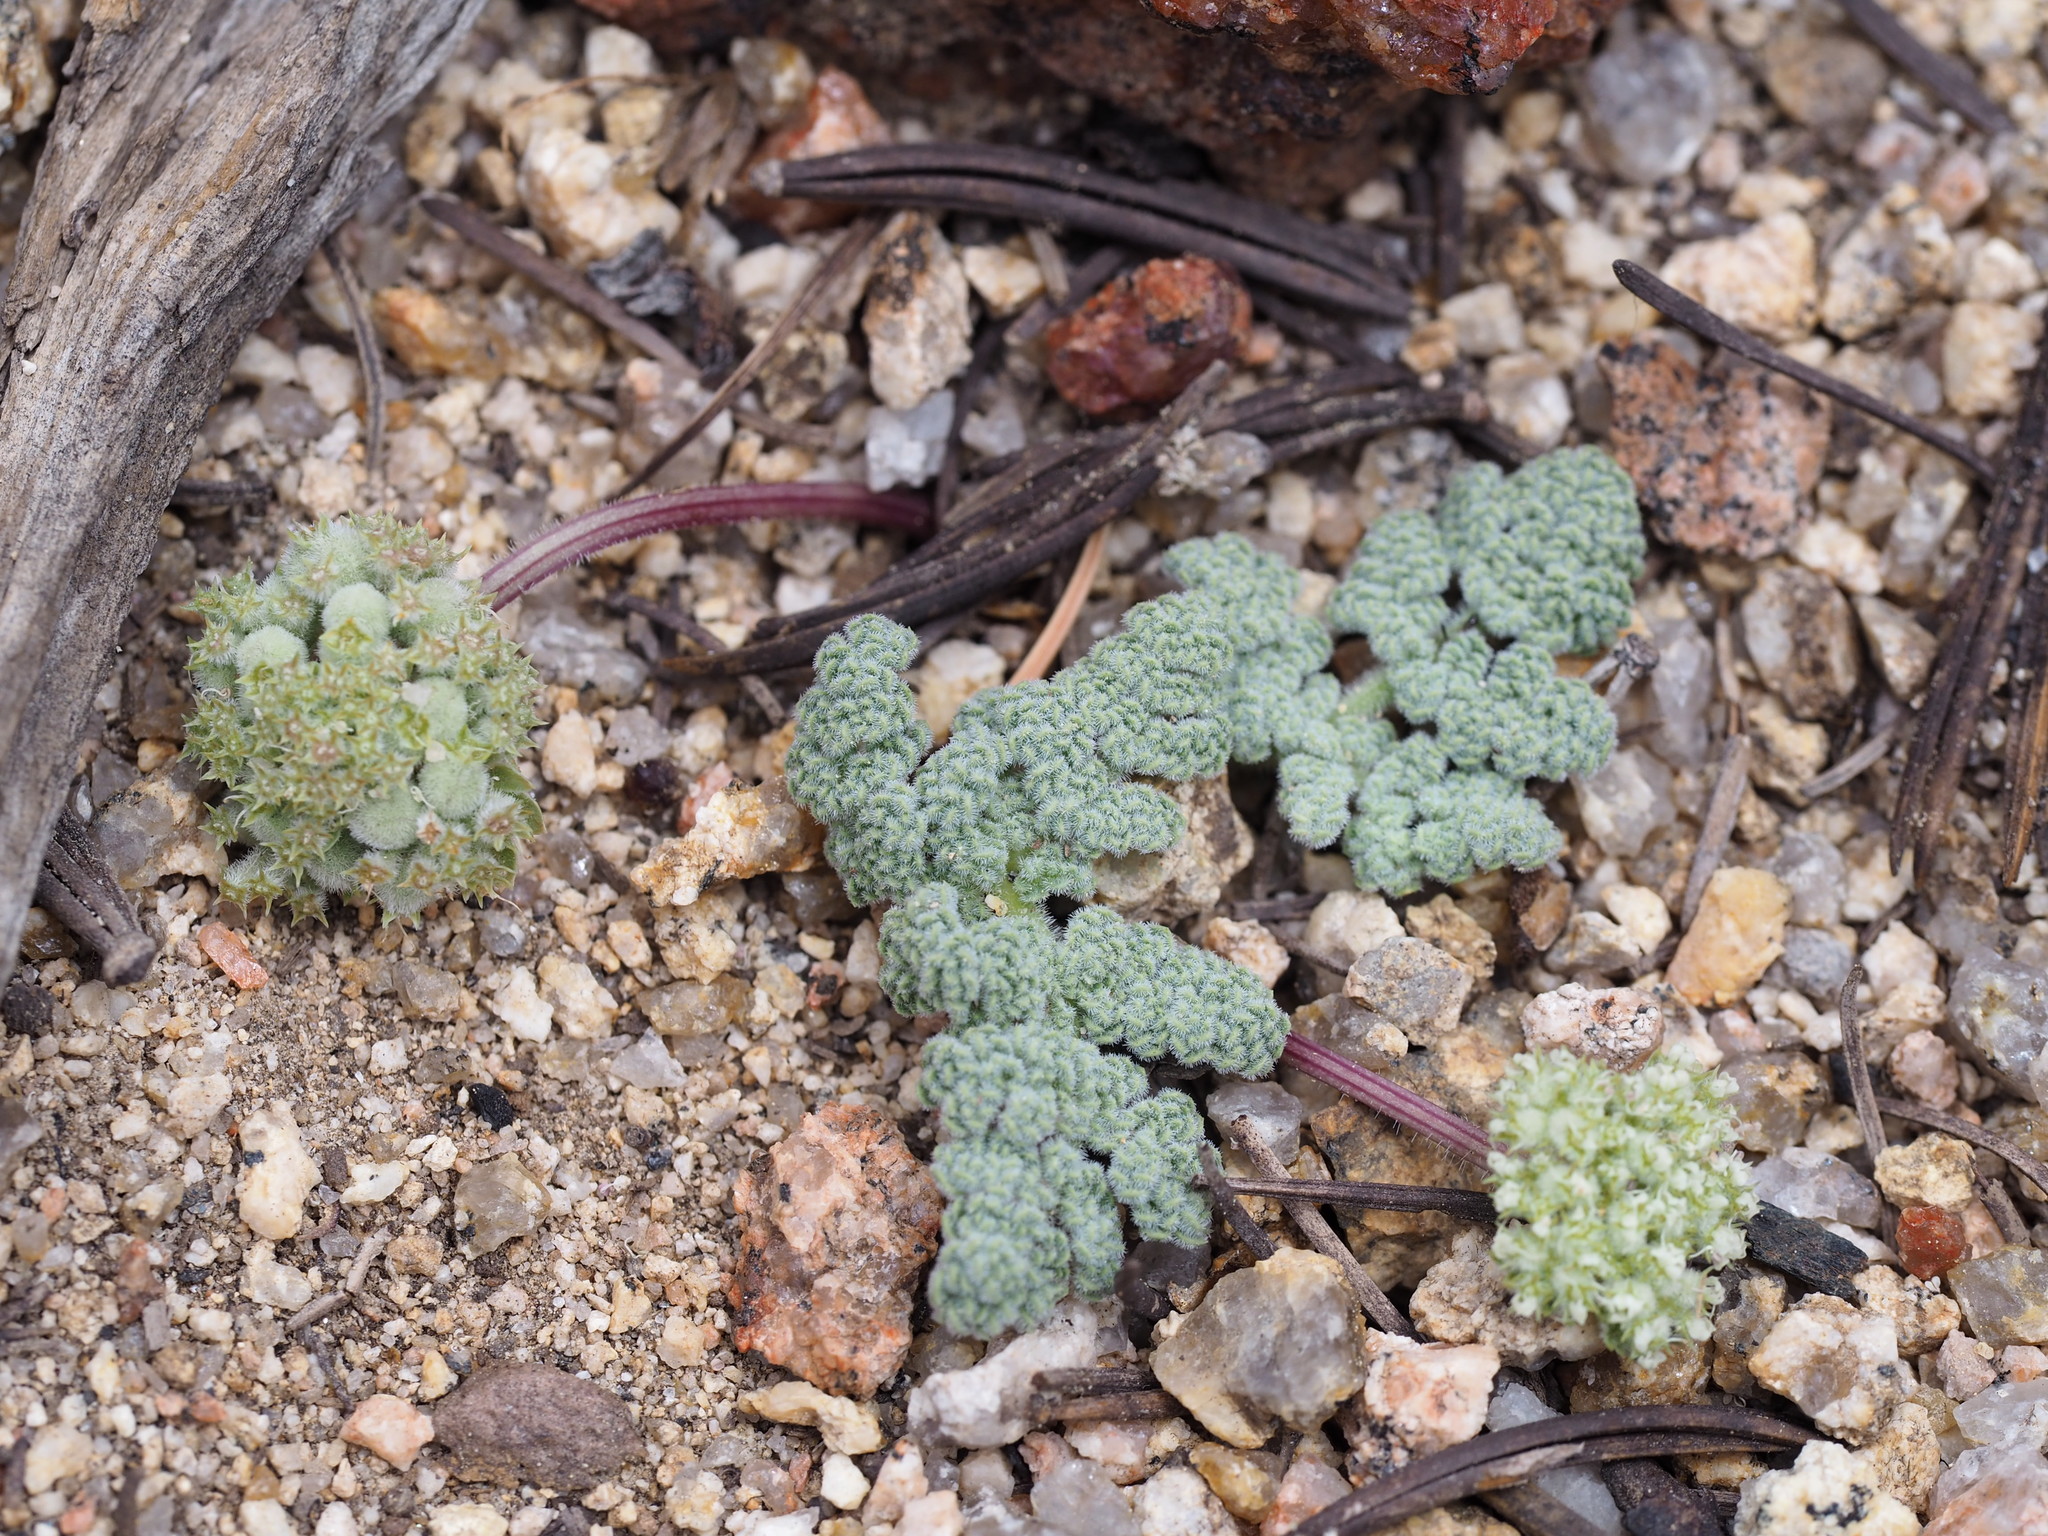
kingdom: Plantae
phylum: Tracheophyta
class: Magnoliopsida
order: Apiales
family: Apiaceae
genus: Oreonana
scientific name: Oreonana clementis
